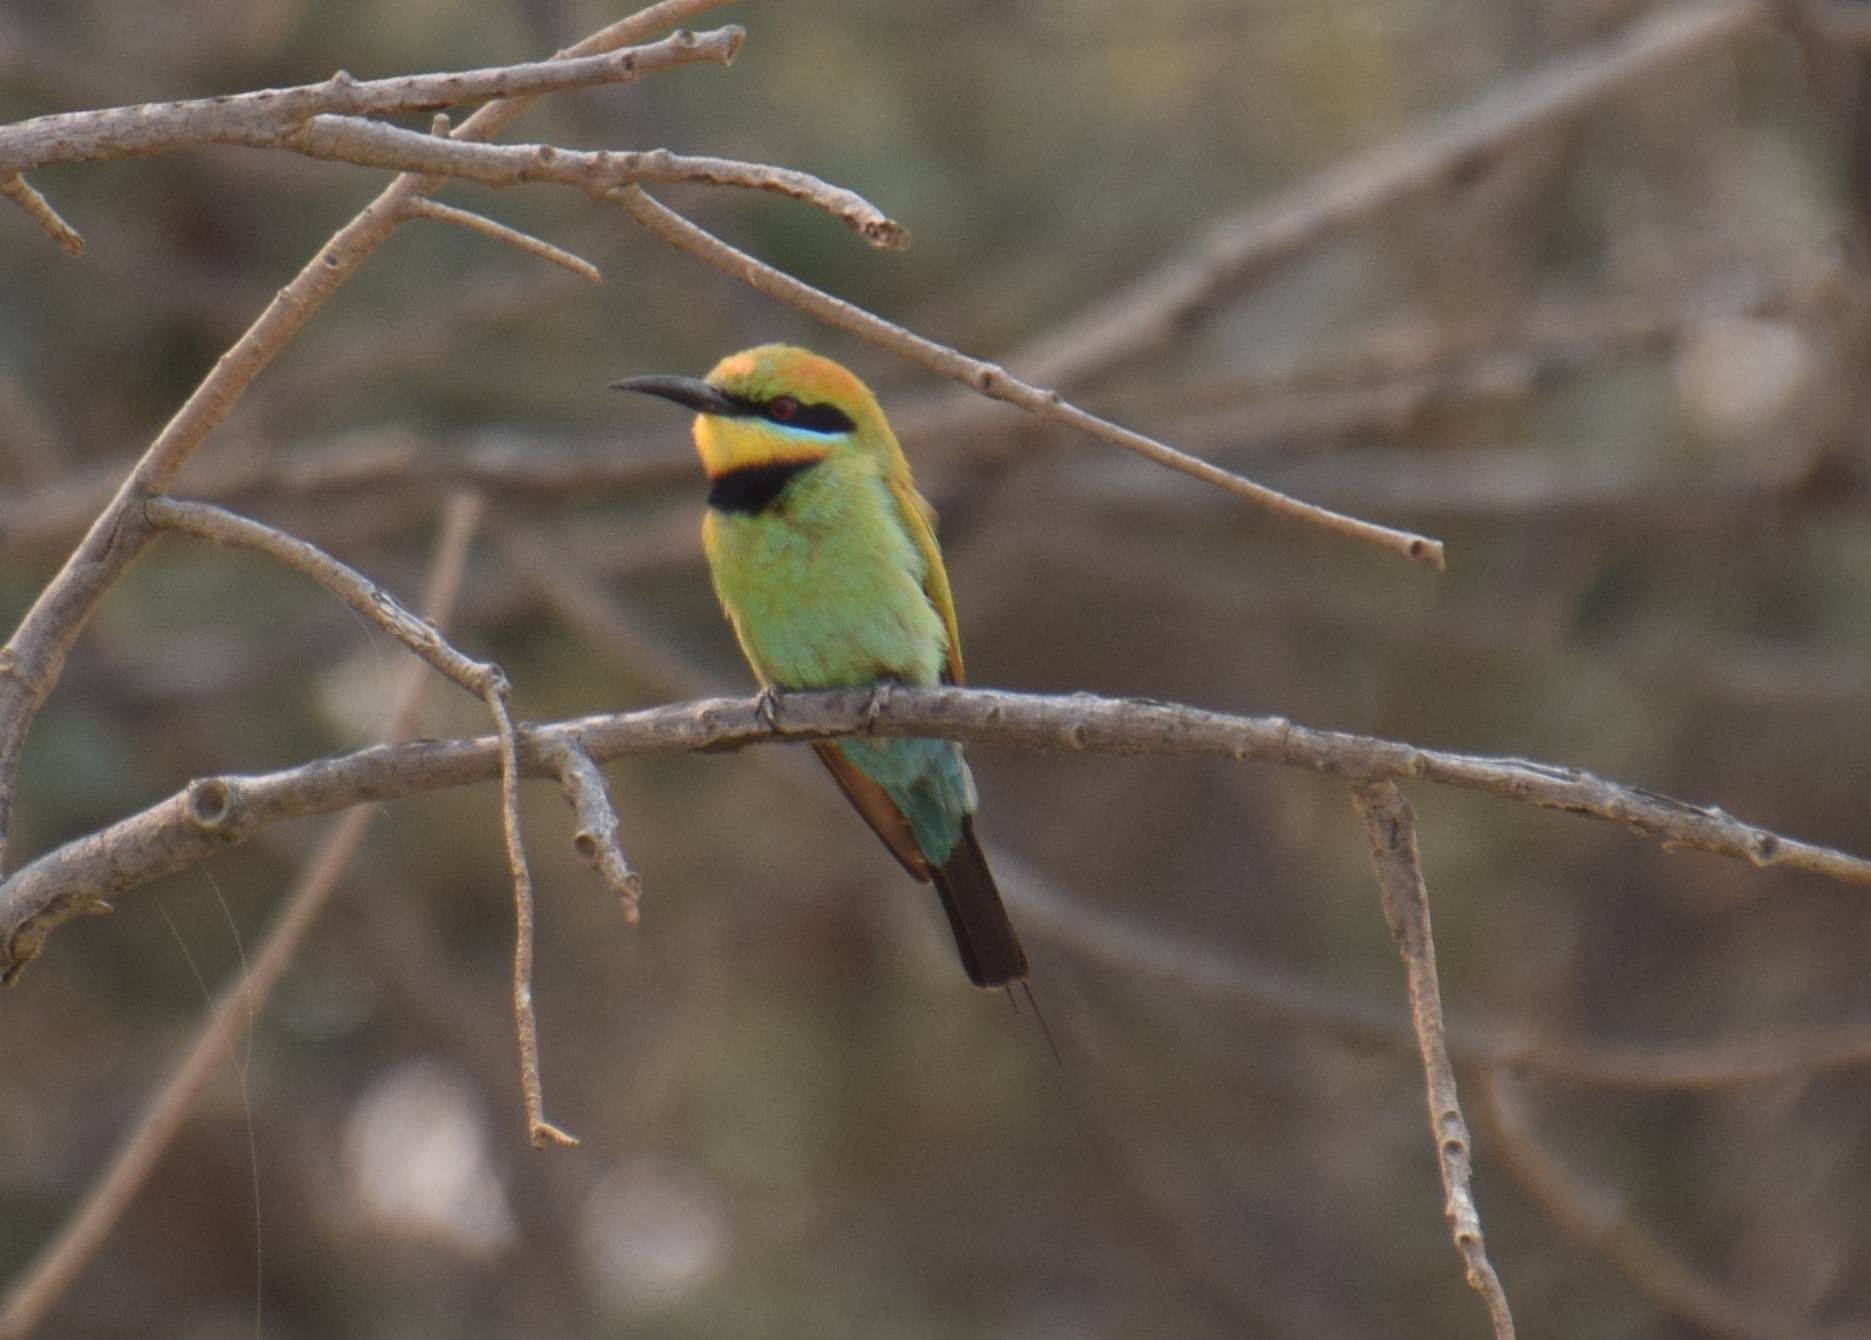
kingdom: Animalia
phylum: Chordata
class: Aves
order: Coraciiformes
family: Meropidae
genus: Merops
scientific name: Merops ornatus
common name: Rainbow bee-eater
